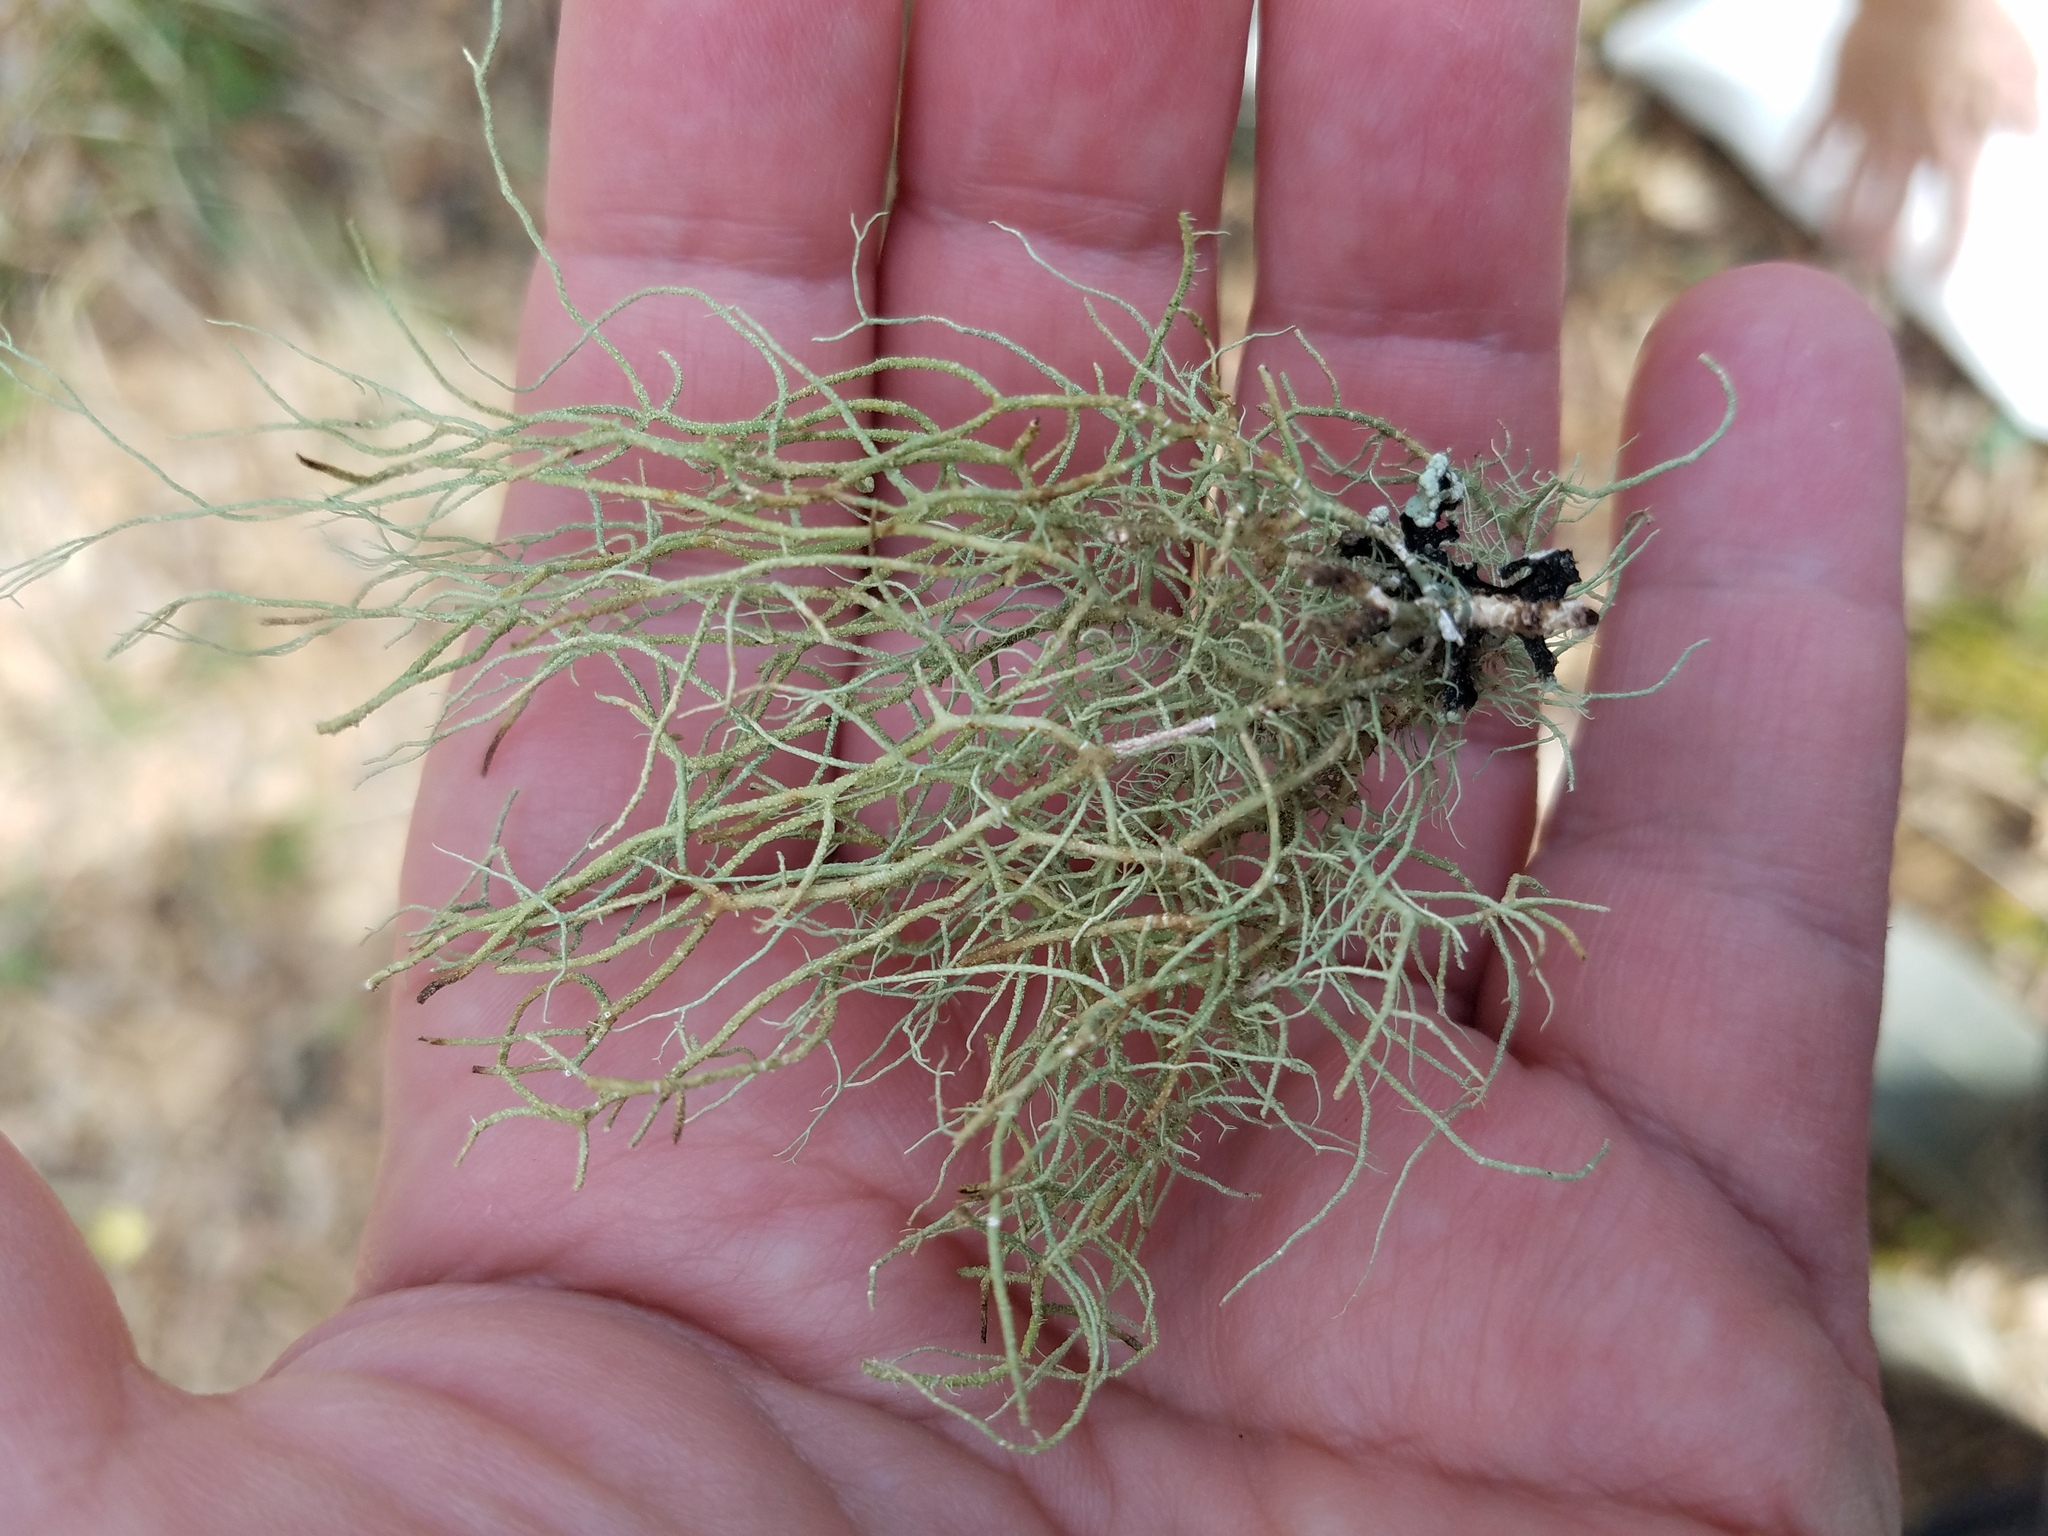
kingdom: Fungi
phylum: Ascomycota
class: Lecanoromycetes
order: Lecanorales
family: Parmeliaceae
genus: Usnea
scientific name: Usnea mutabilis
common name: Bloody beard
